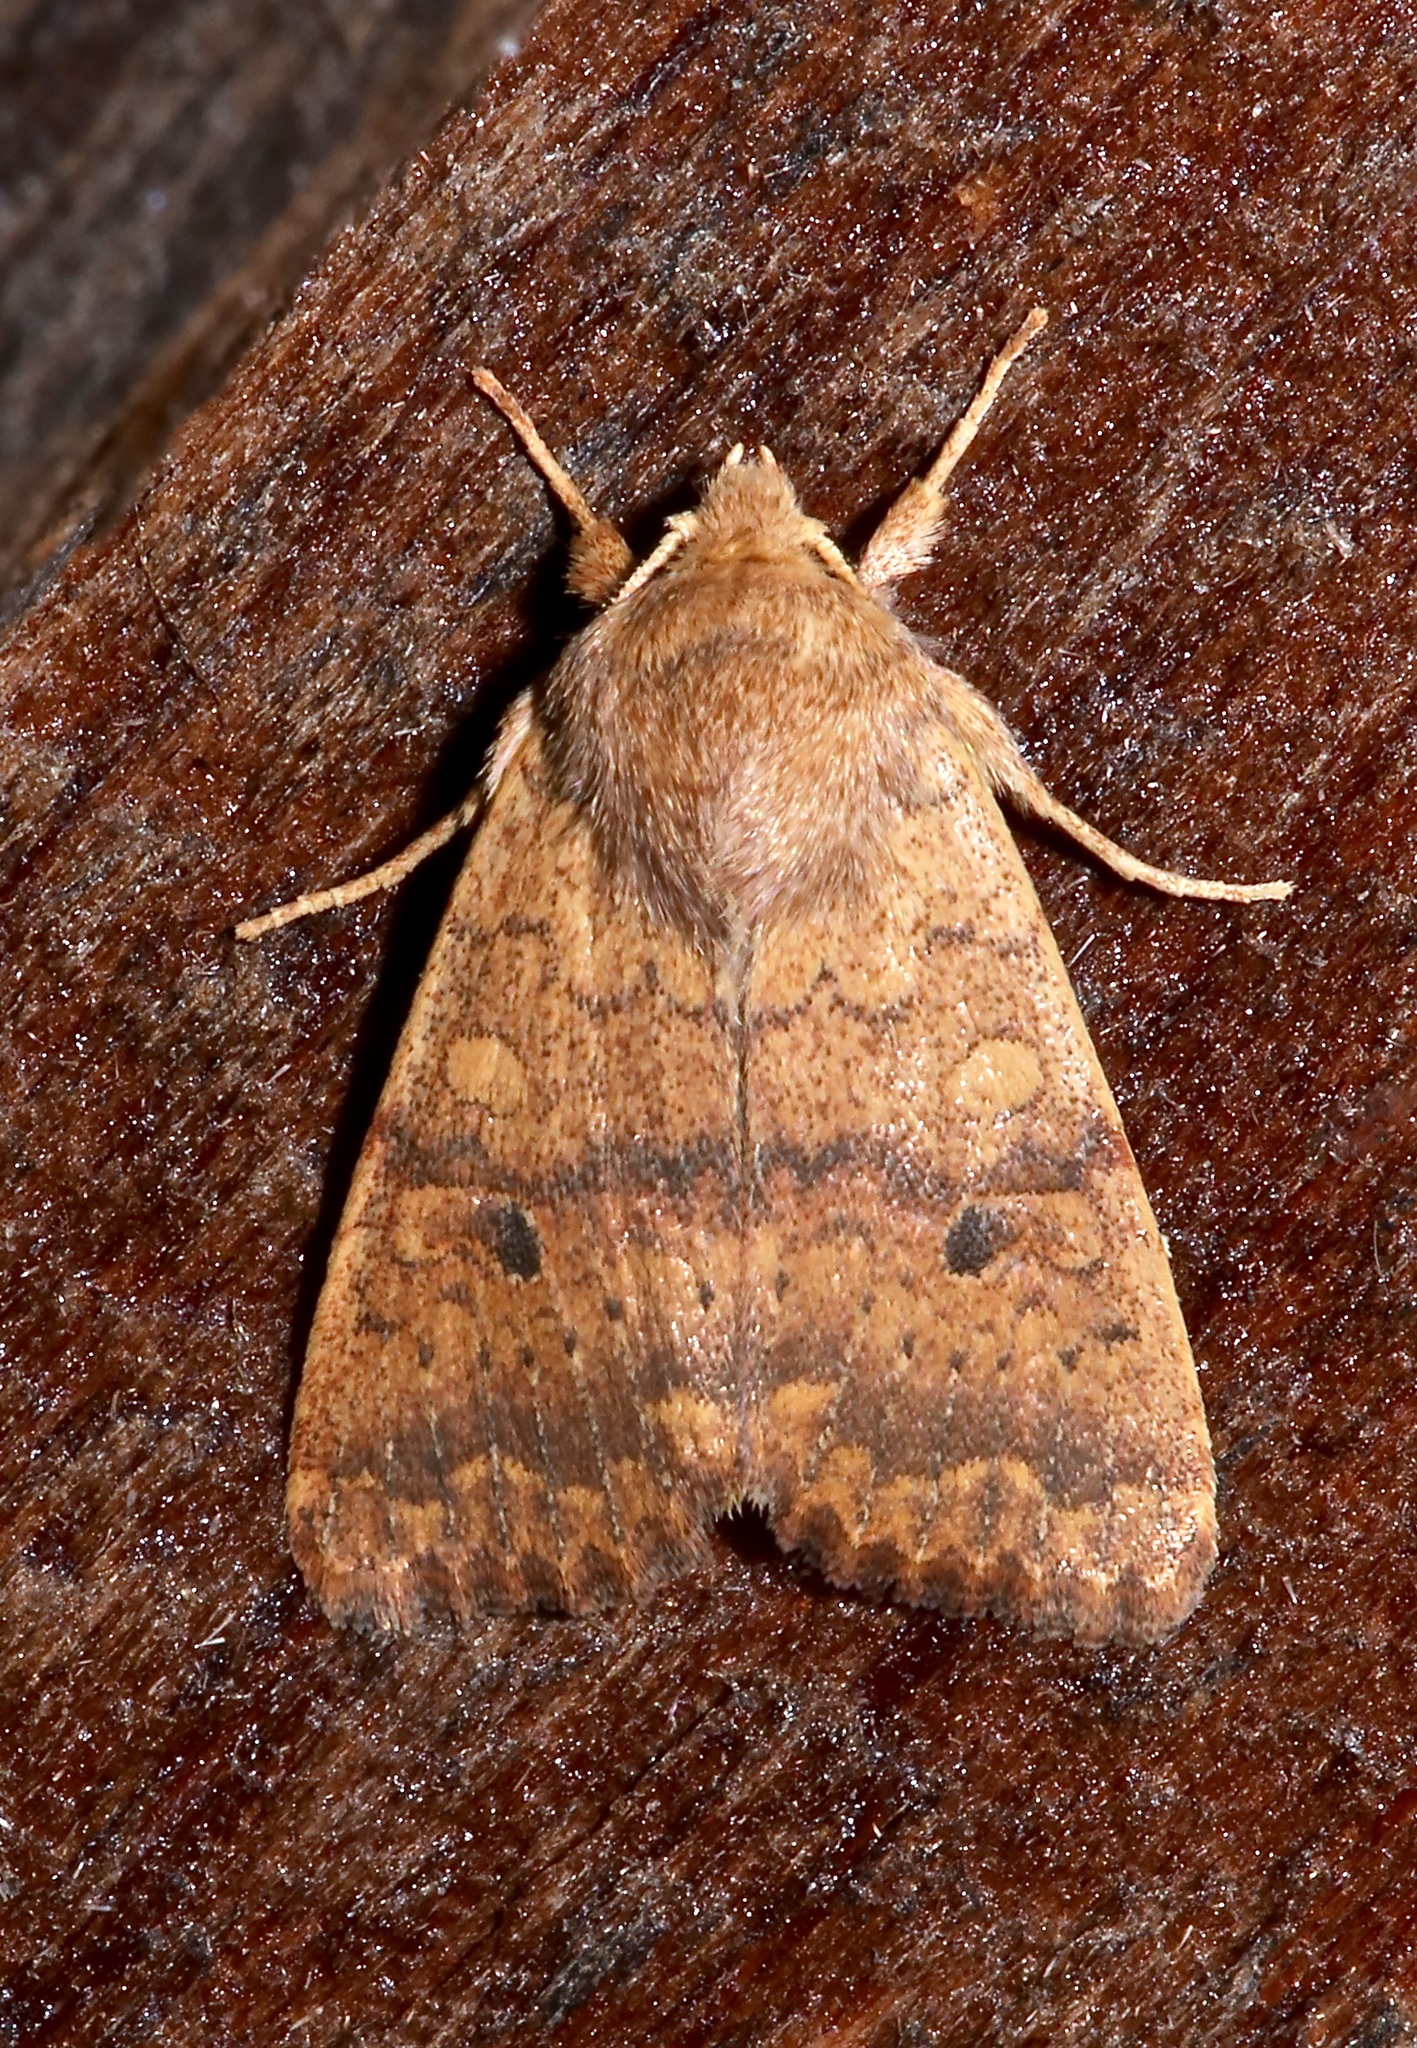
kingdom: Animalia
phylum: Arthropoda
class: Insecta
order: Lepidoptera
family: Noctuidae
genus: Agrochola
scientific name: Agrochola bicolorago
